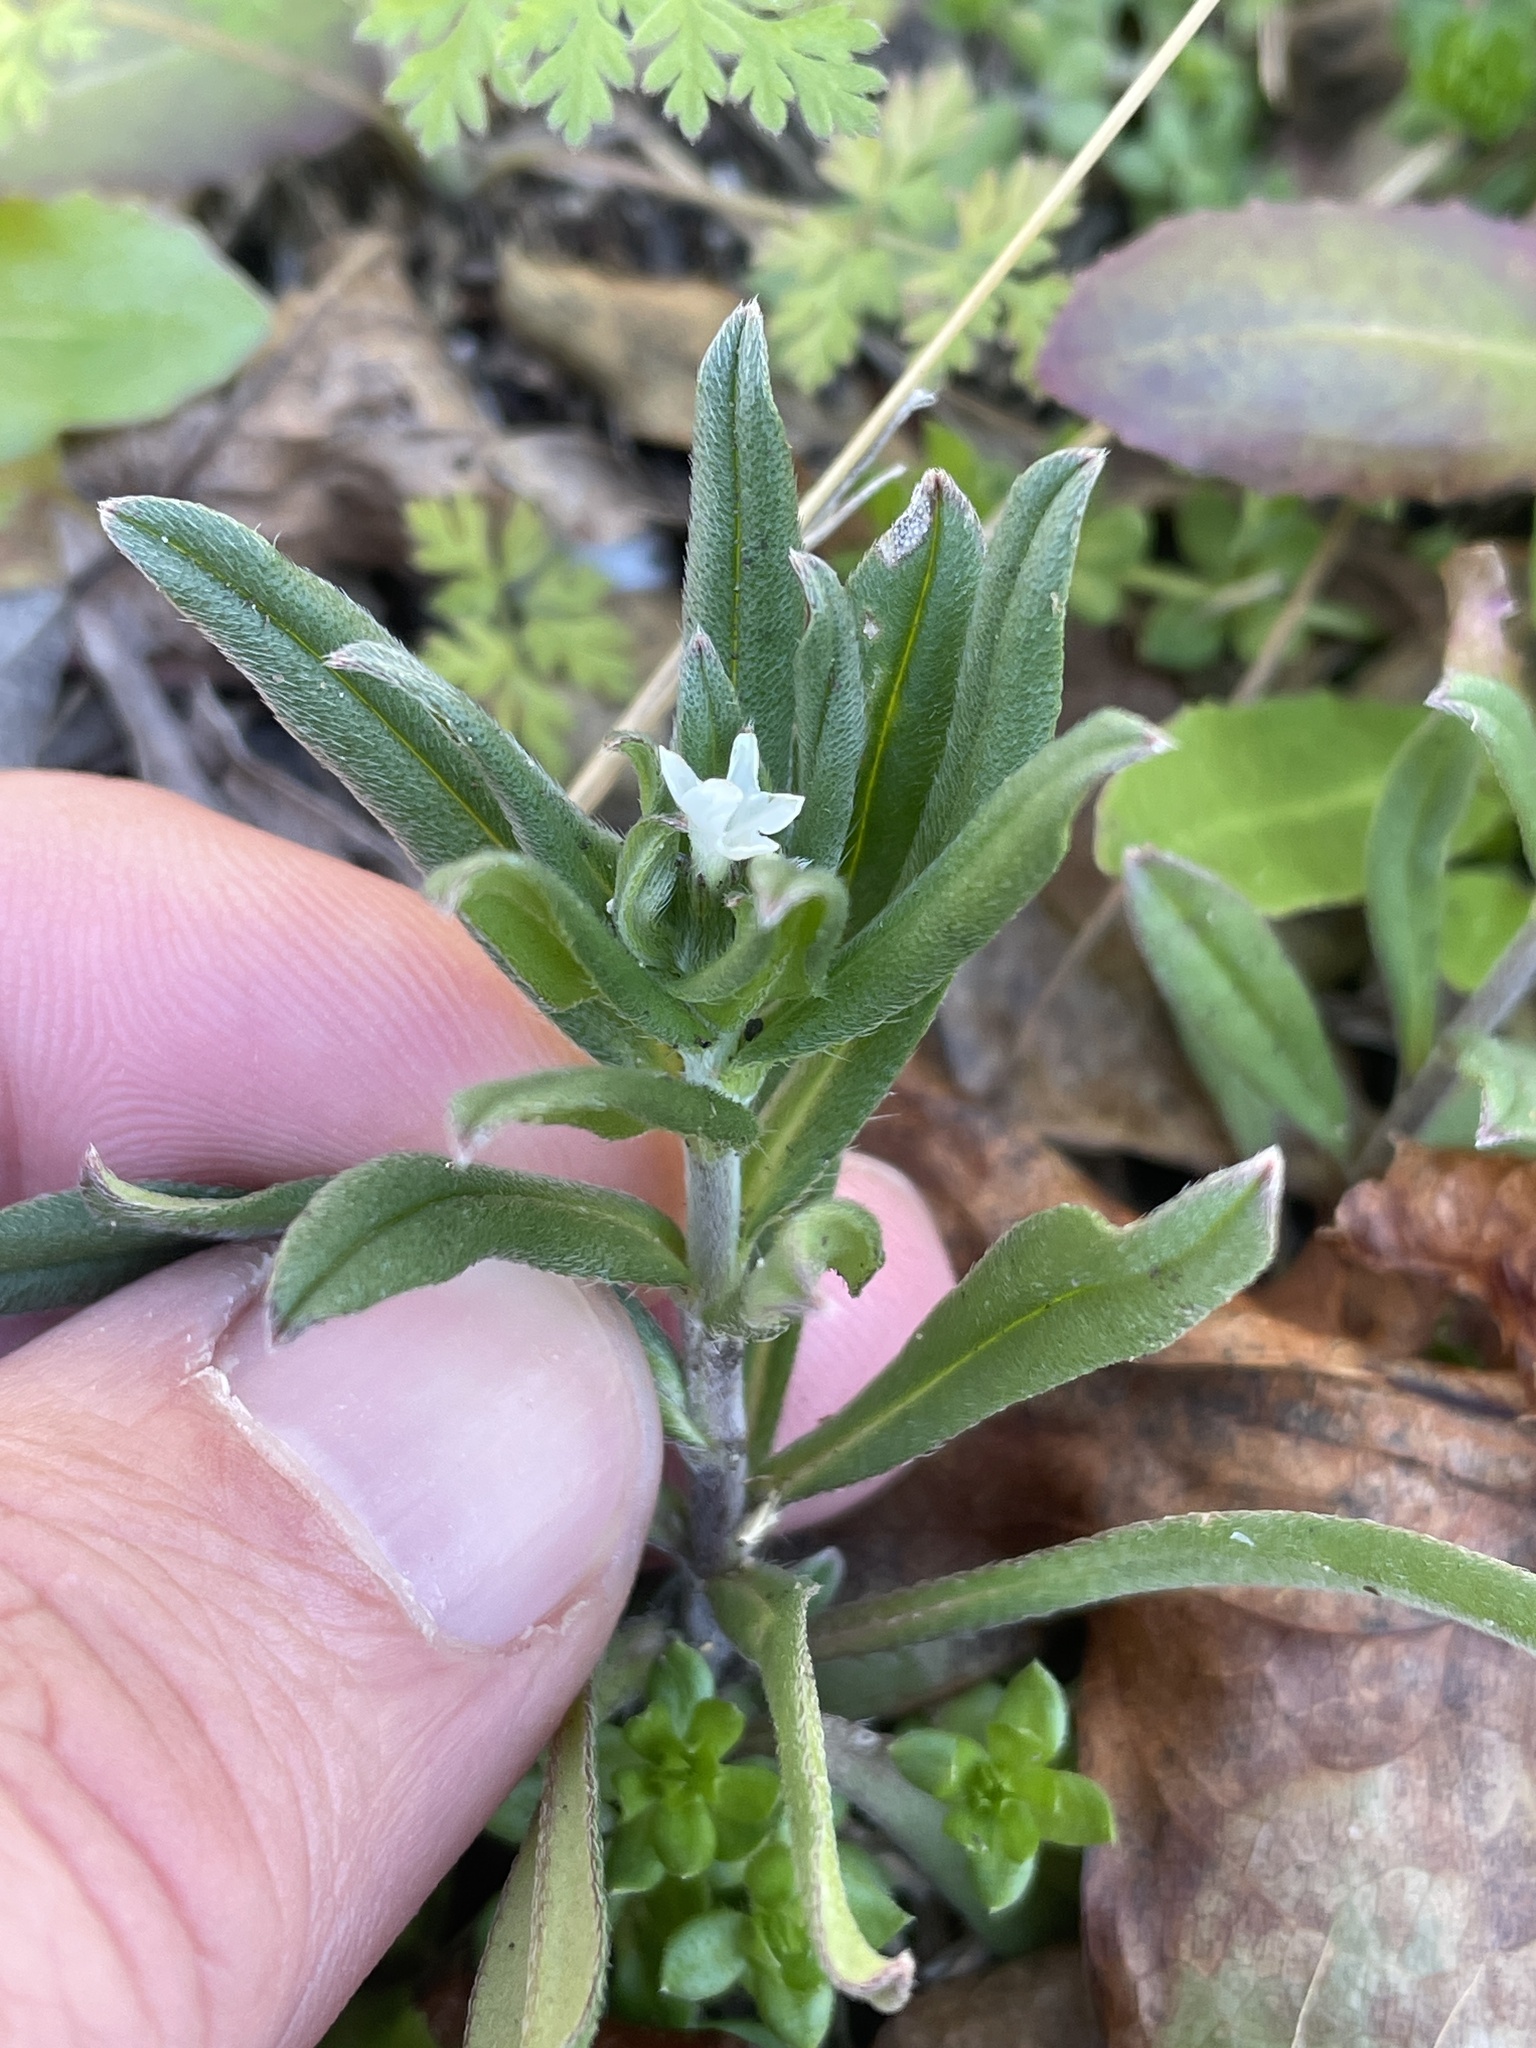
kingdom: Plantae
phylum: Tracheophyta
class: Magnoliopsida
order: Boraginales
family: Boraginaceae
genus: Buglossoides
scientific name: Buglossoides arvensis
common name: Corn gromwell
